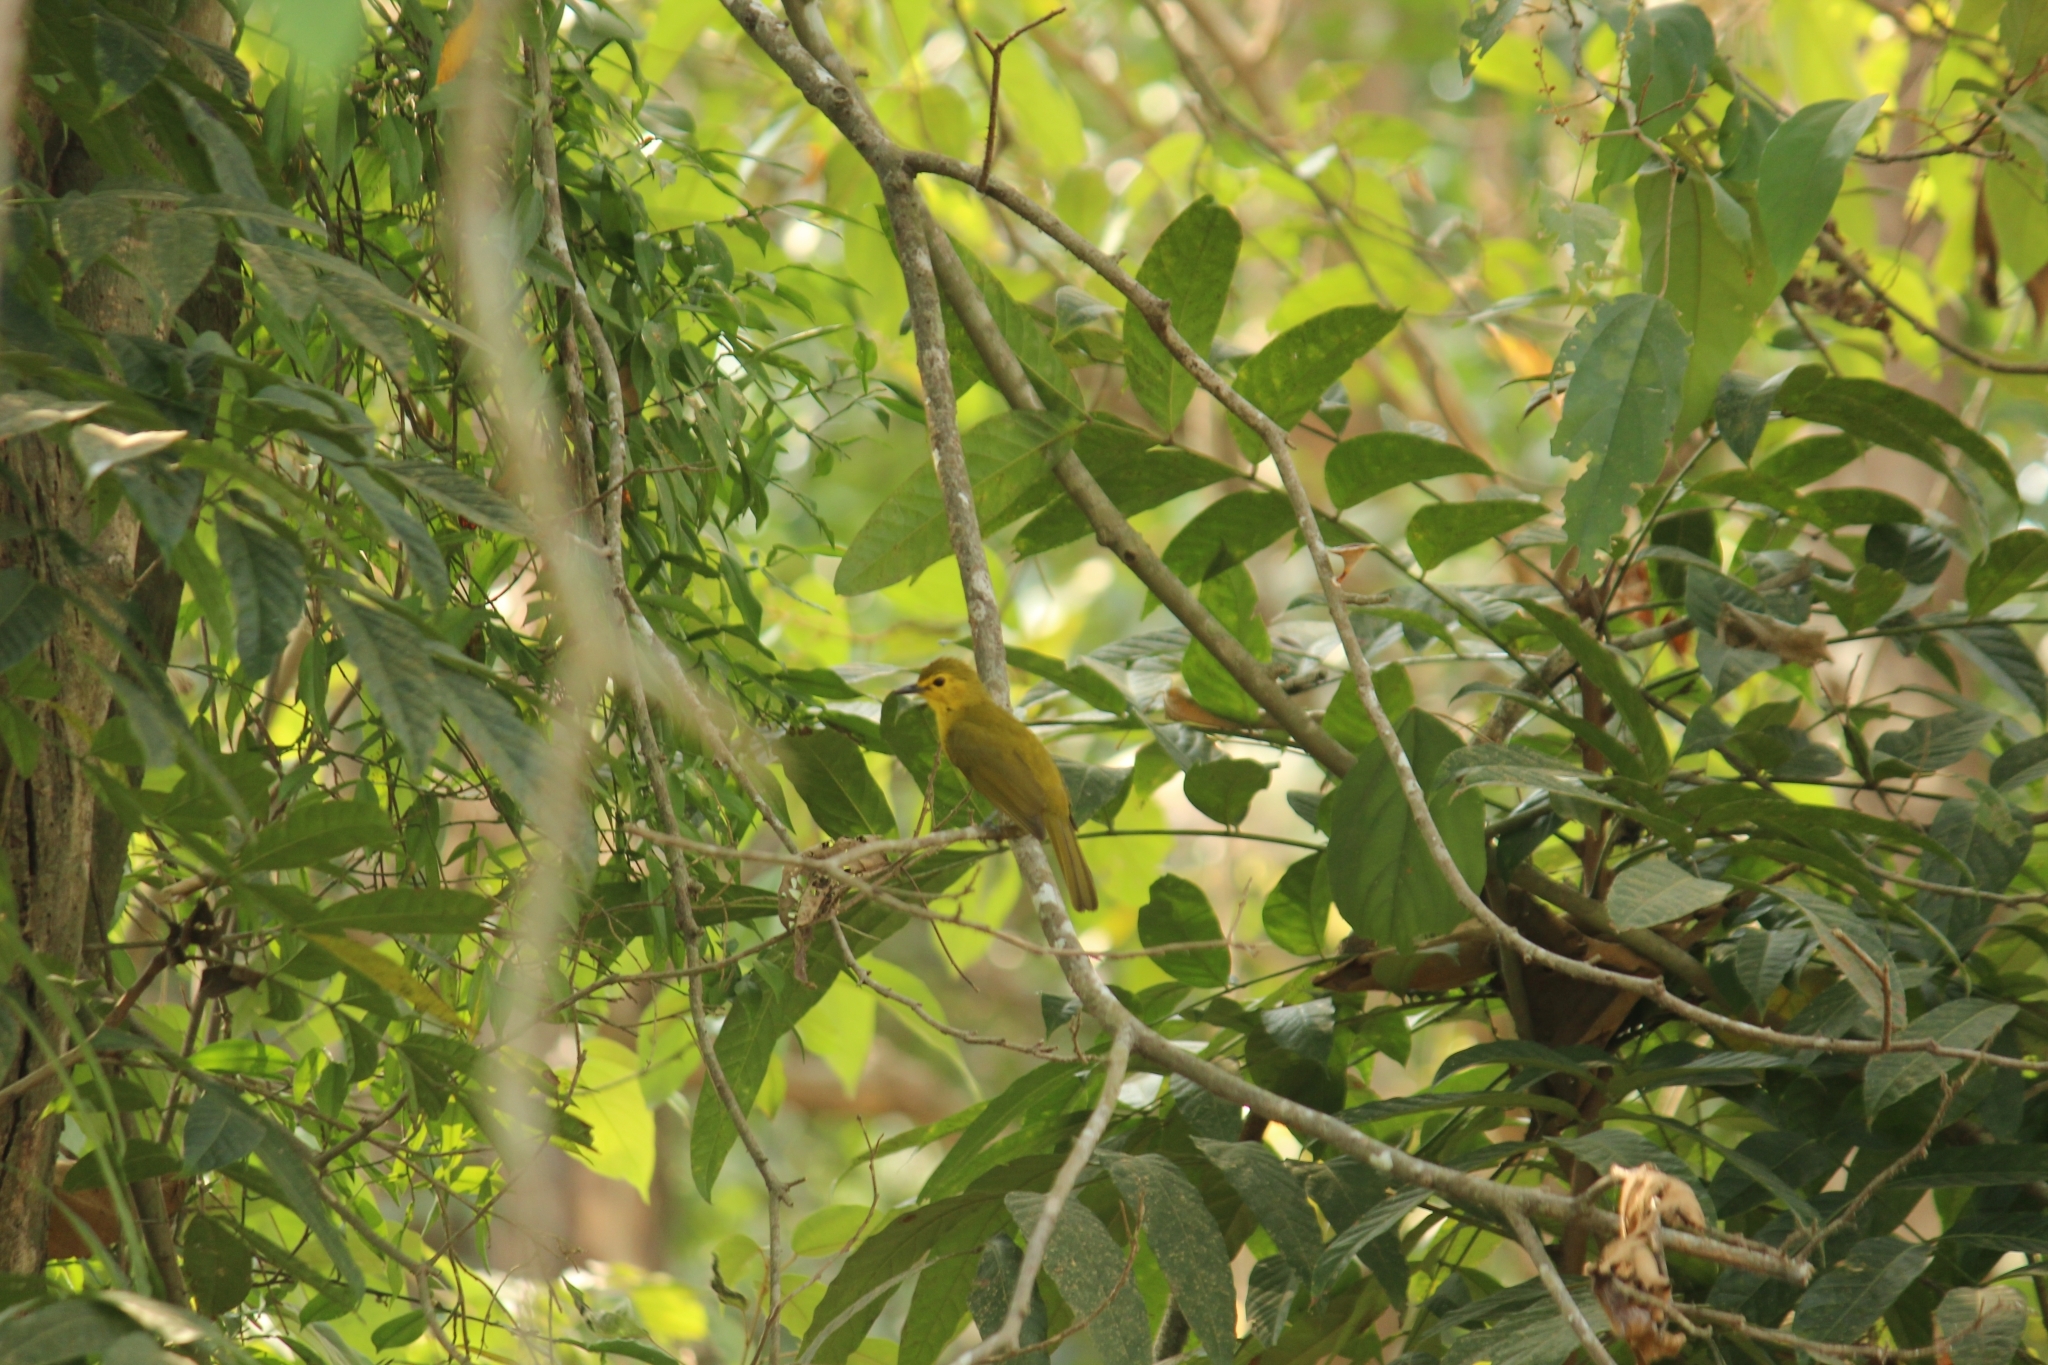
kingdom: Animalia
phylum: Chordata
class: Aves
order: Passeriformes
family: Pycnonotidae
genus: Acritillas
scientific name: Acritillas indica
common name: Yellow-browed bulbul
